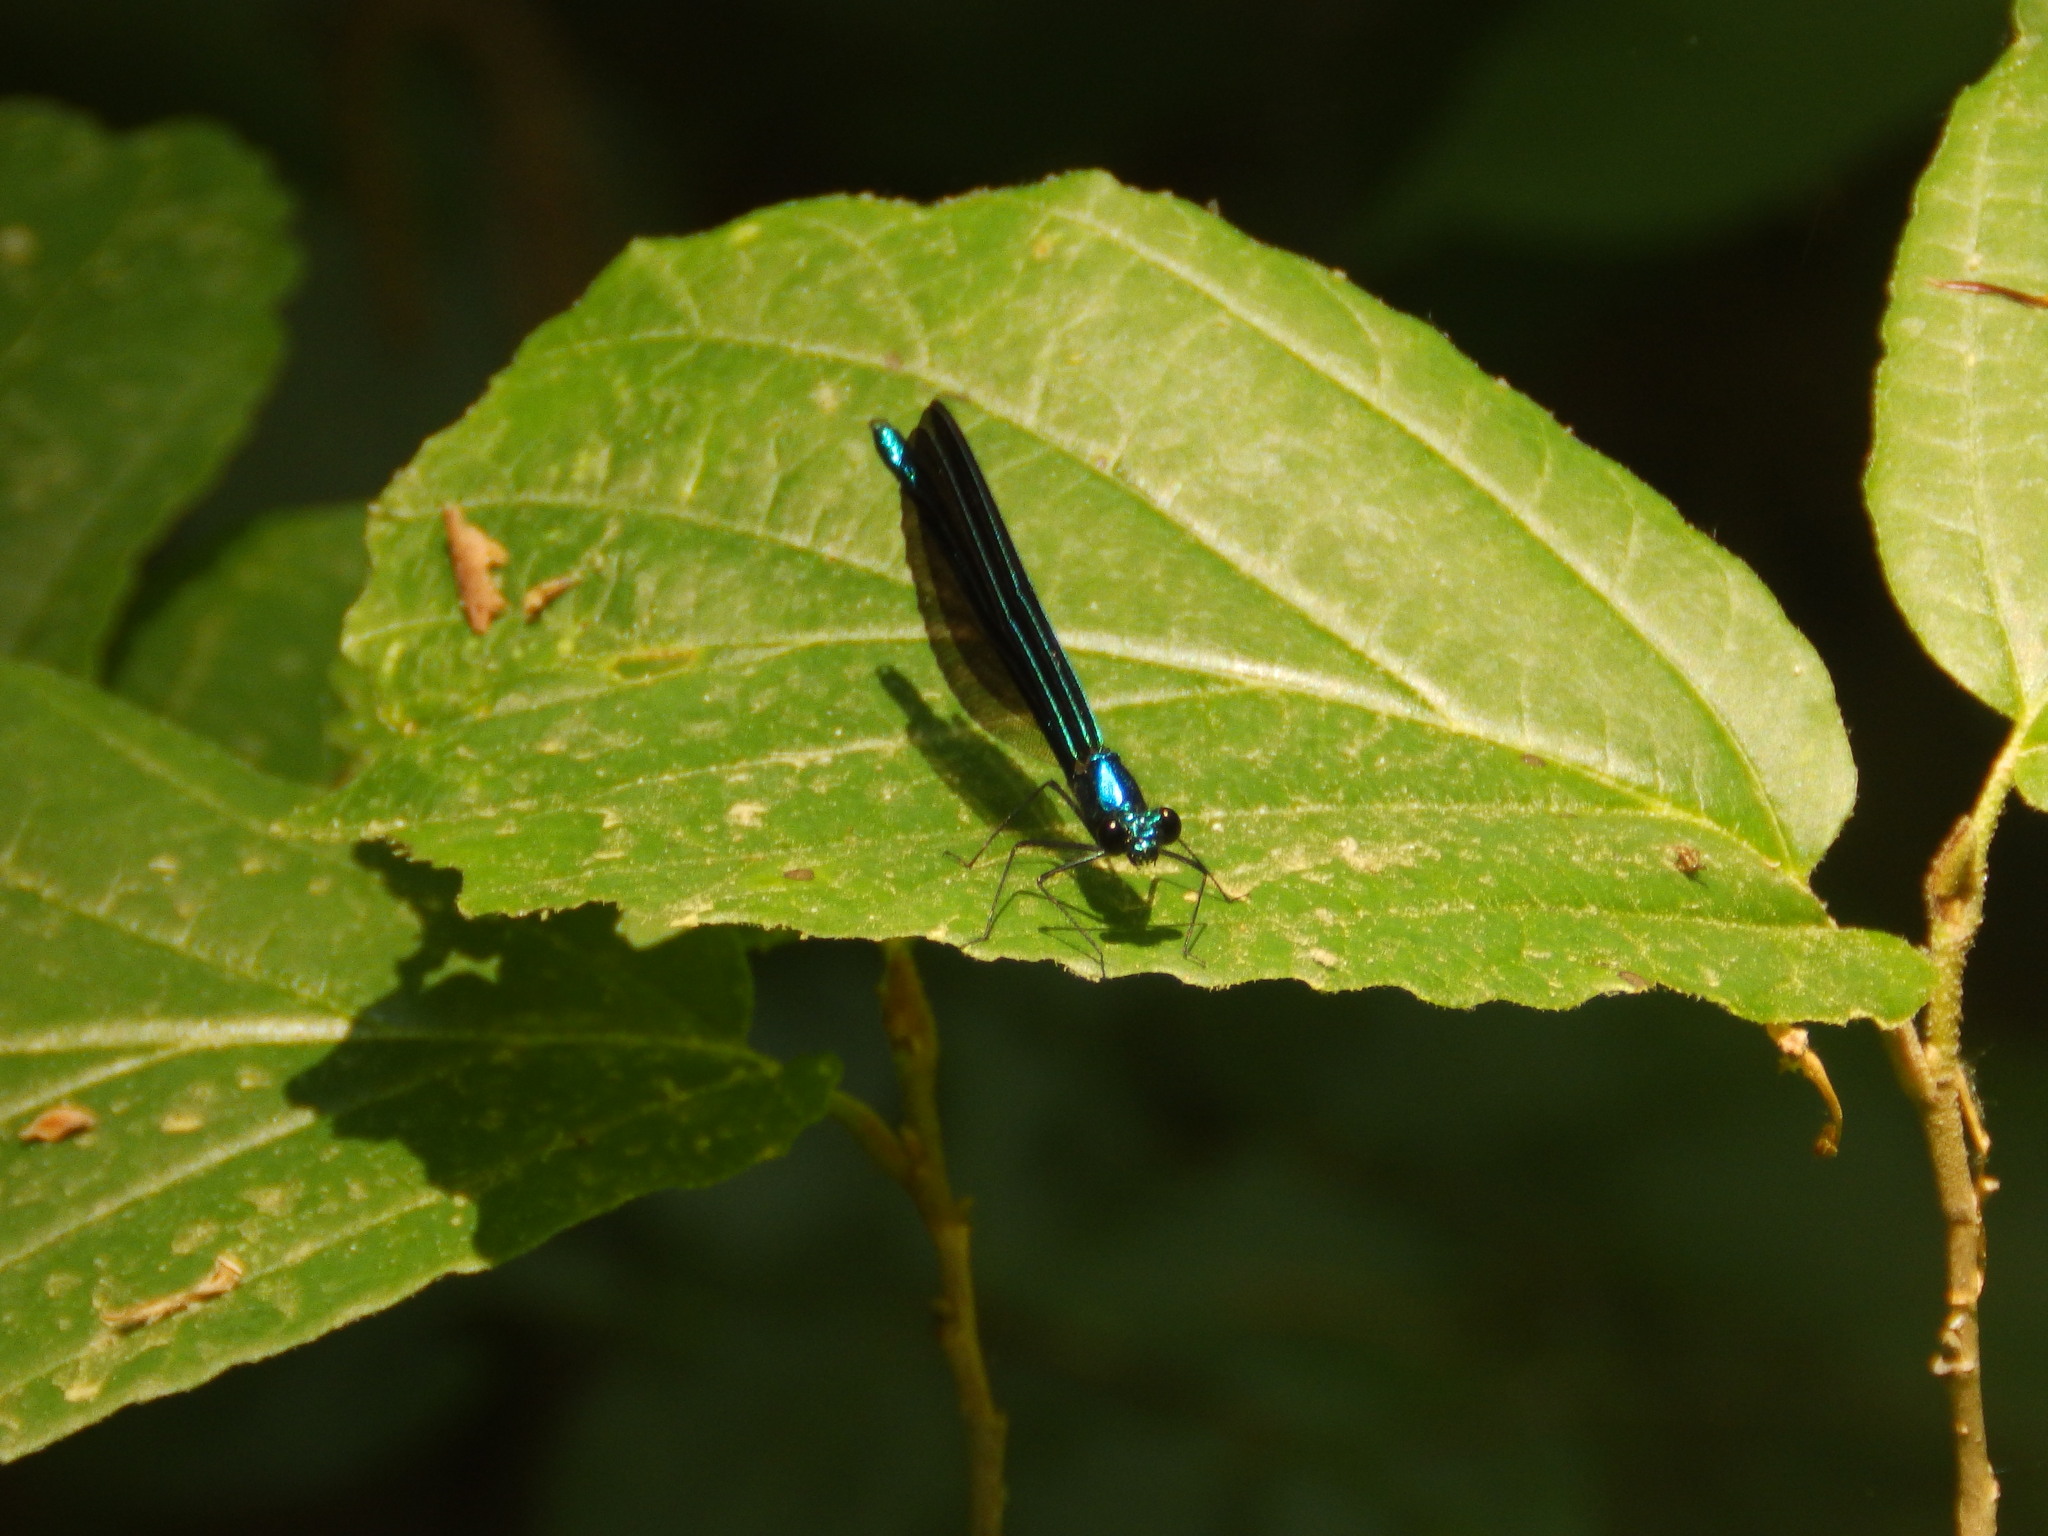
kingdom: Animalia
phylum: Arthropoda
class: Insecta
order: Odonata
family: Calopterygidae
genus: Calopteryx
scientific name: Calopteryx maculata
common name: Ebony jewelwing
